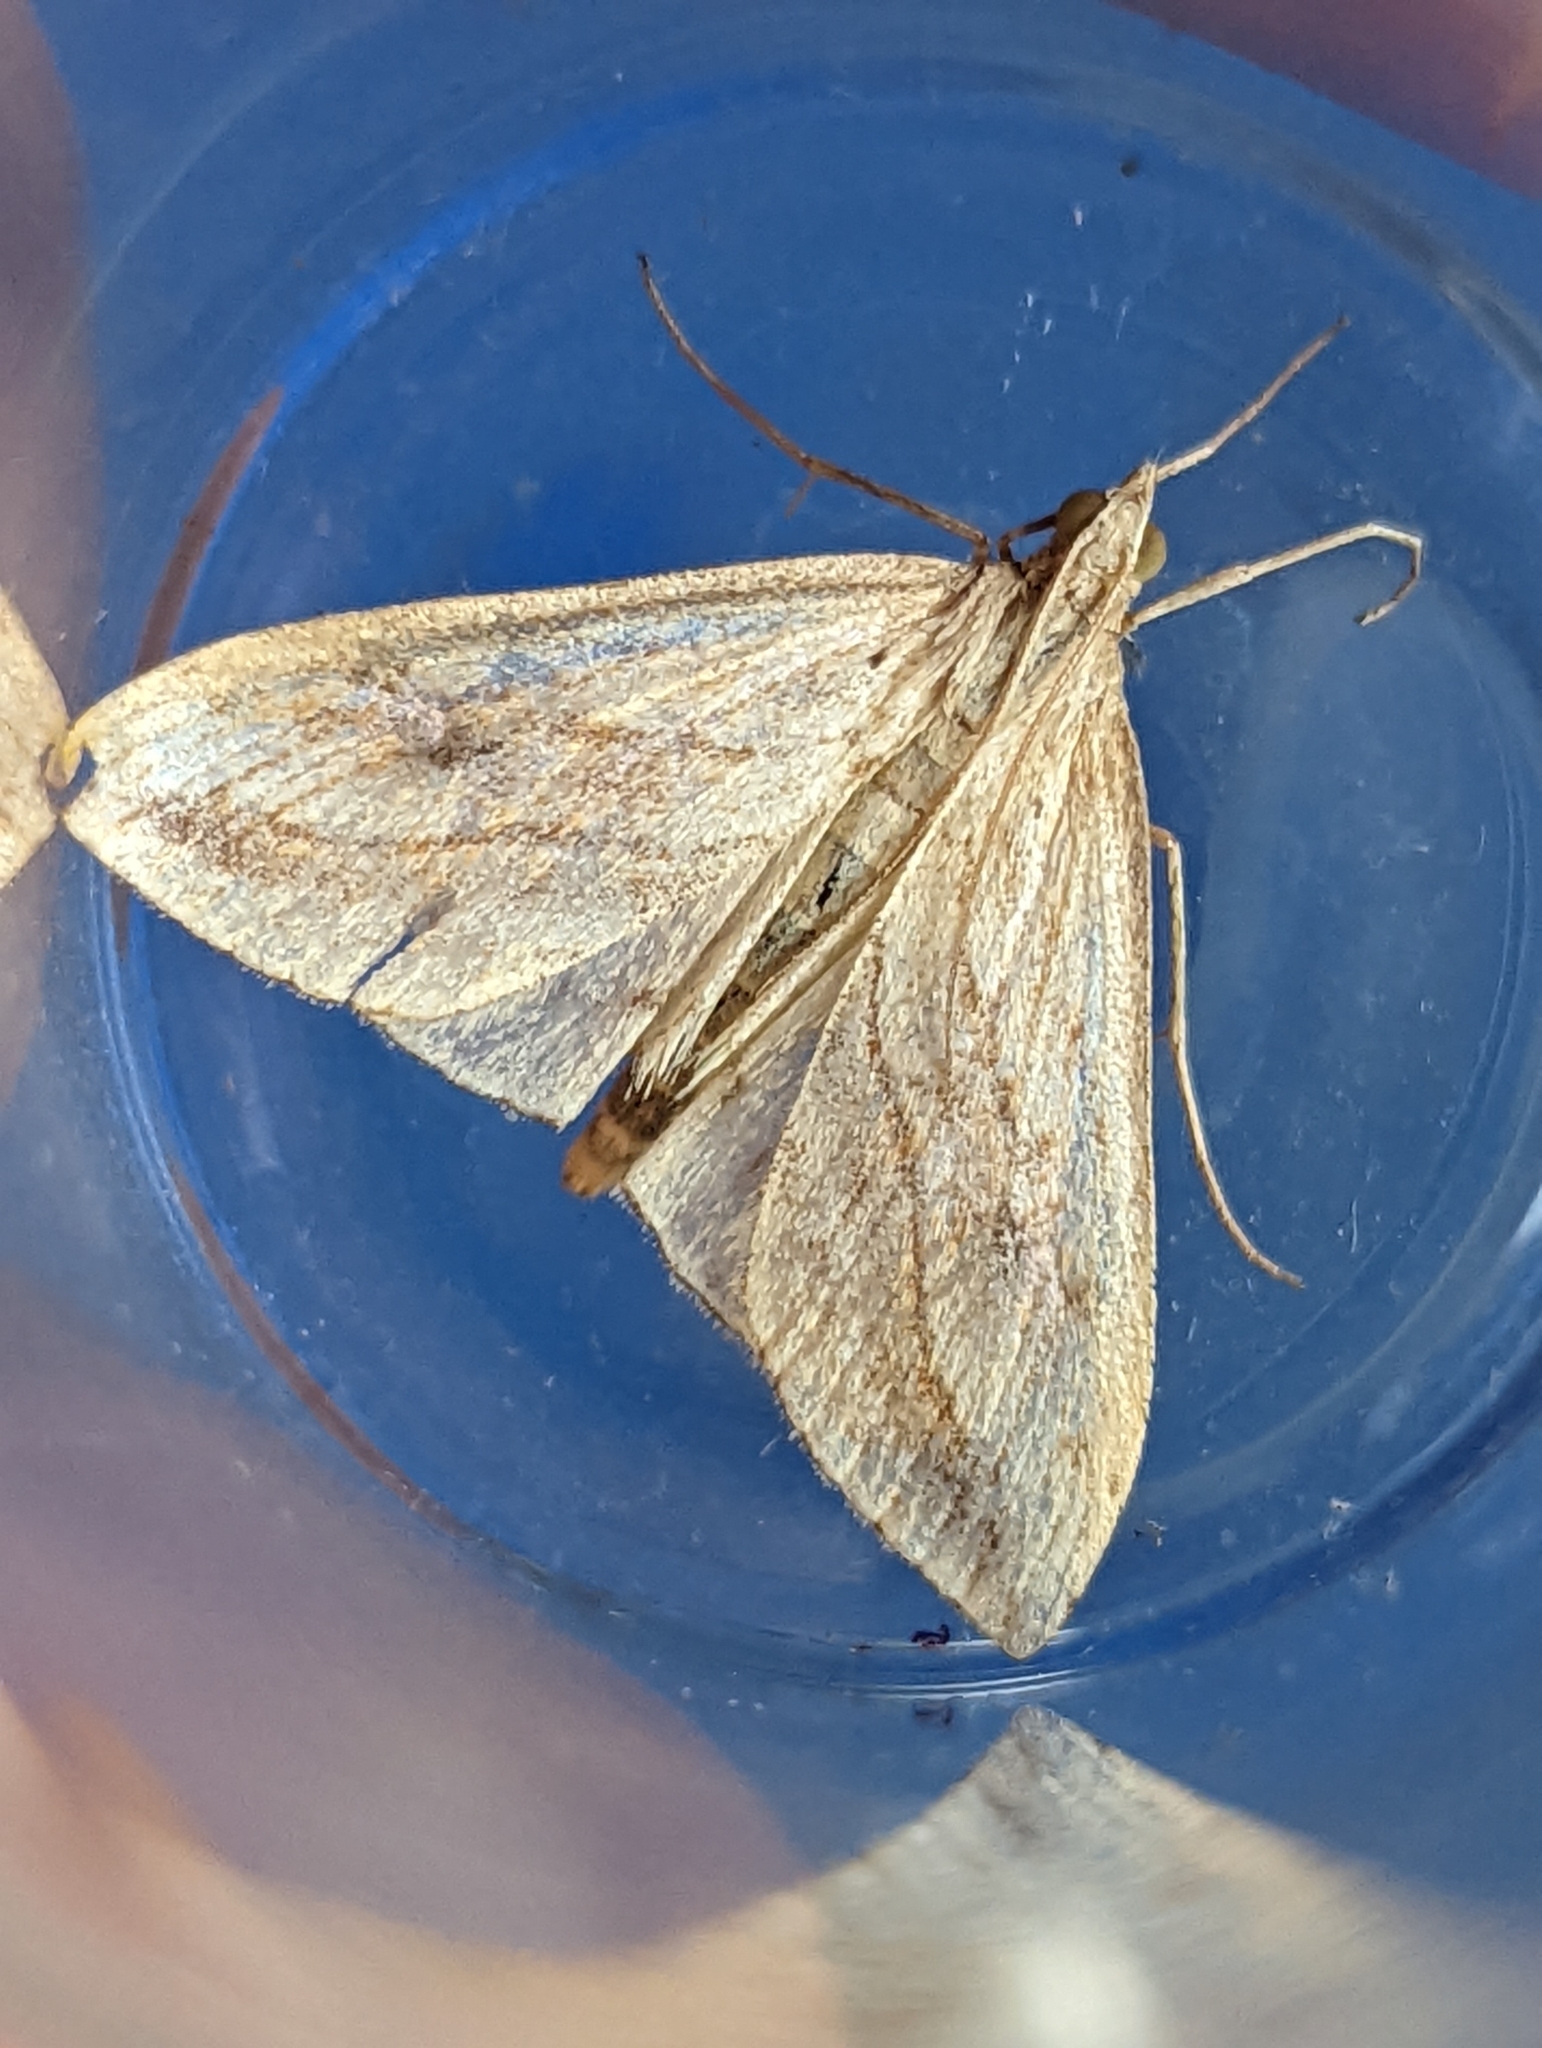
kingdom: Animalia
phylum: Arthropoda
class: Insecta
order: Lepidoptera
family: Crambidae
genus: Evergestis
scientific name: Evergestis forficalis
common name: Garden pebble
